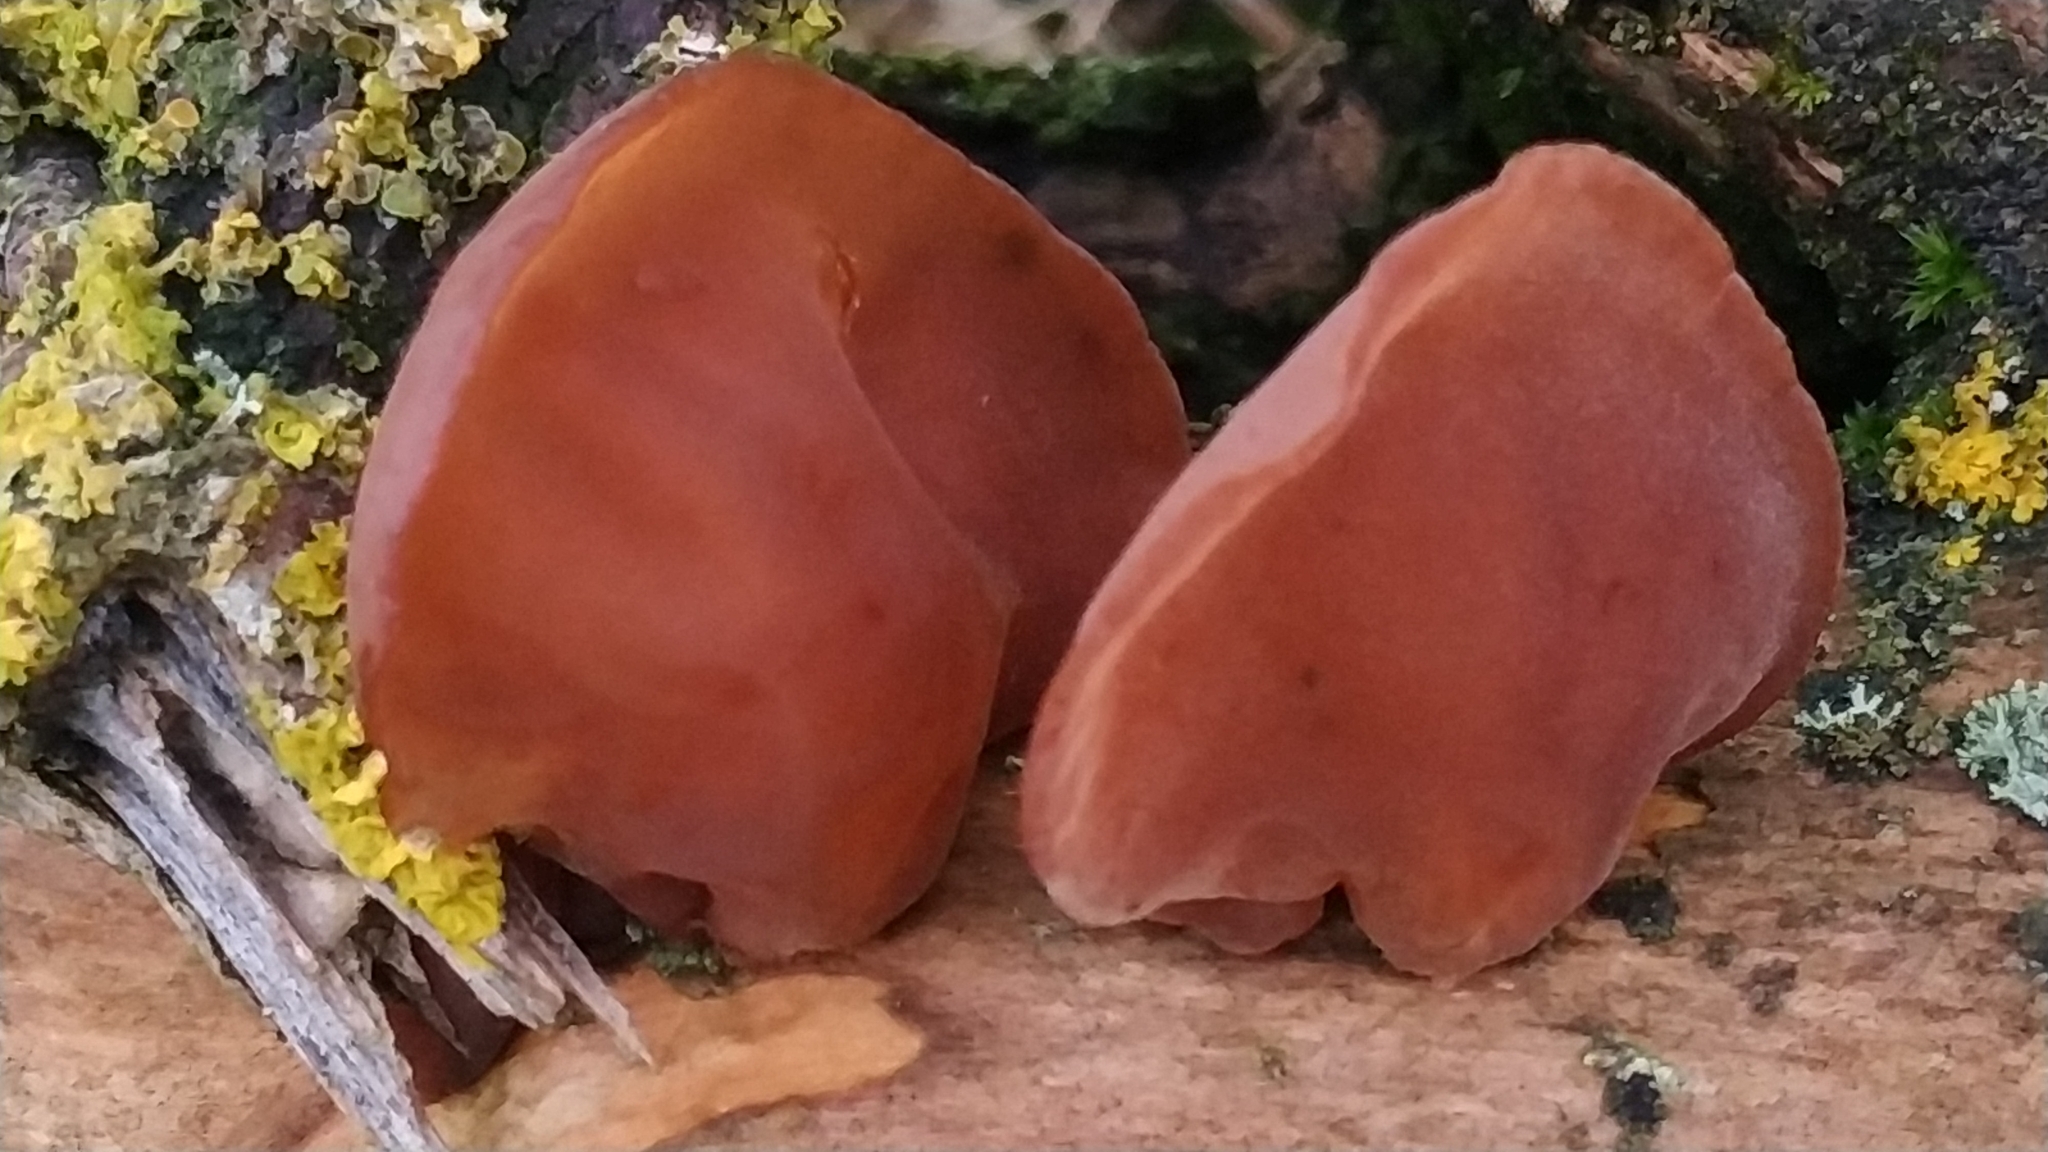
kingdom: Fungi
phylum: Basidiomycota
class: Agaricomycetes
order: Auriculariales
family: Auriculariaceae
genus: Auricularia
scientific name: Auricularia auricula-judae
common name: Jelly ear
